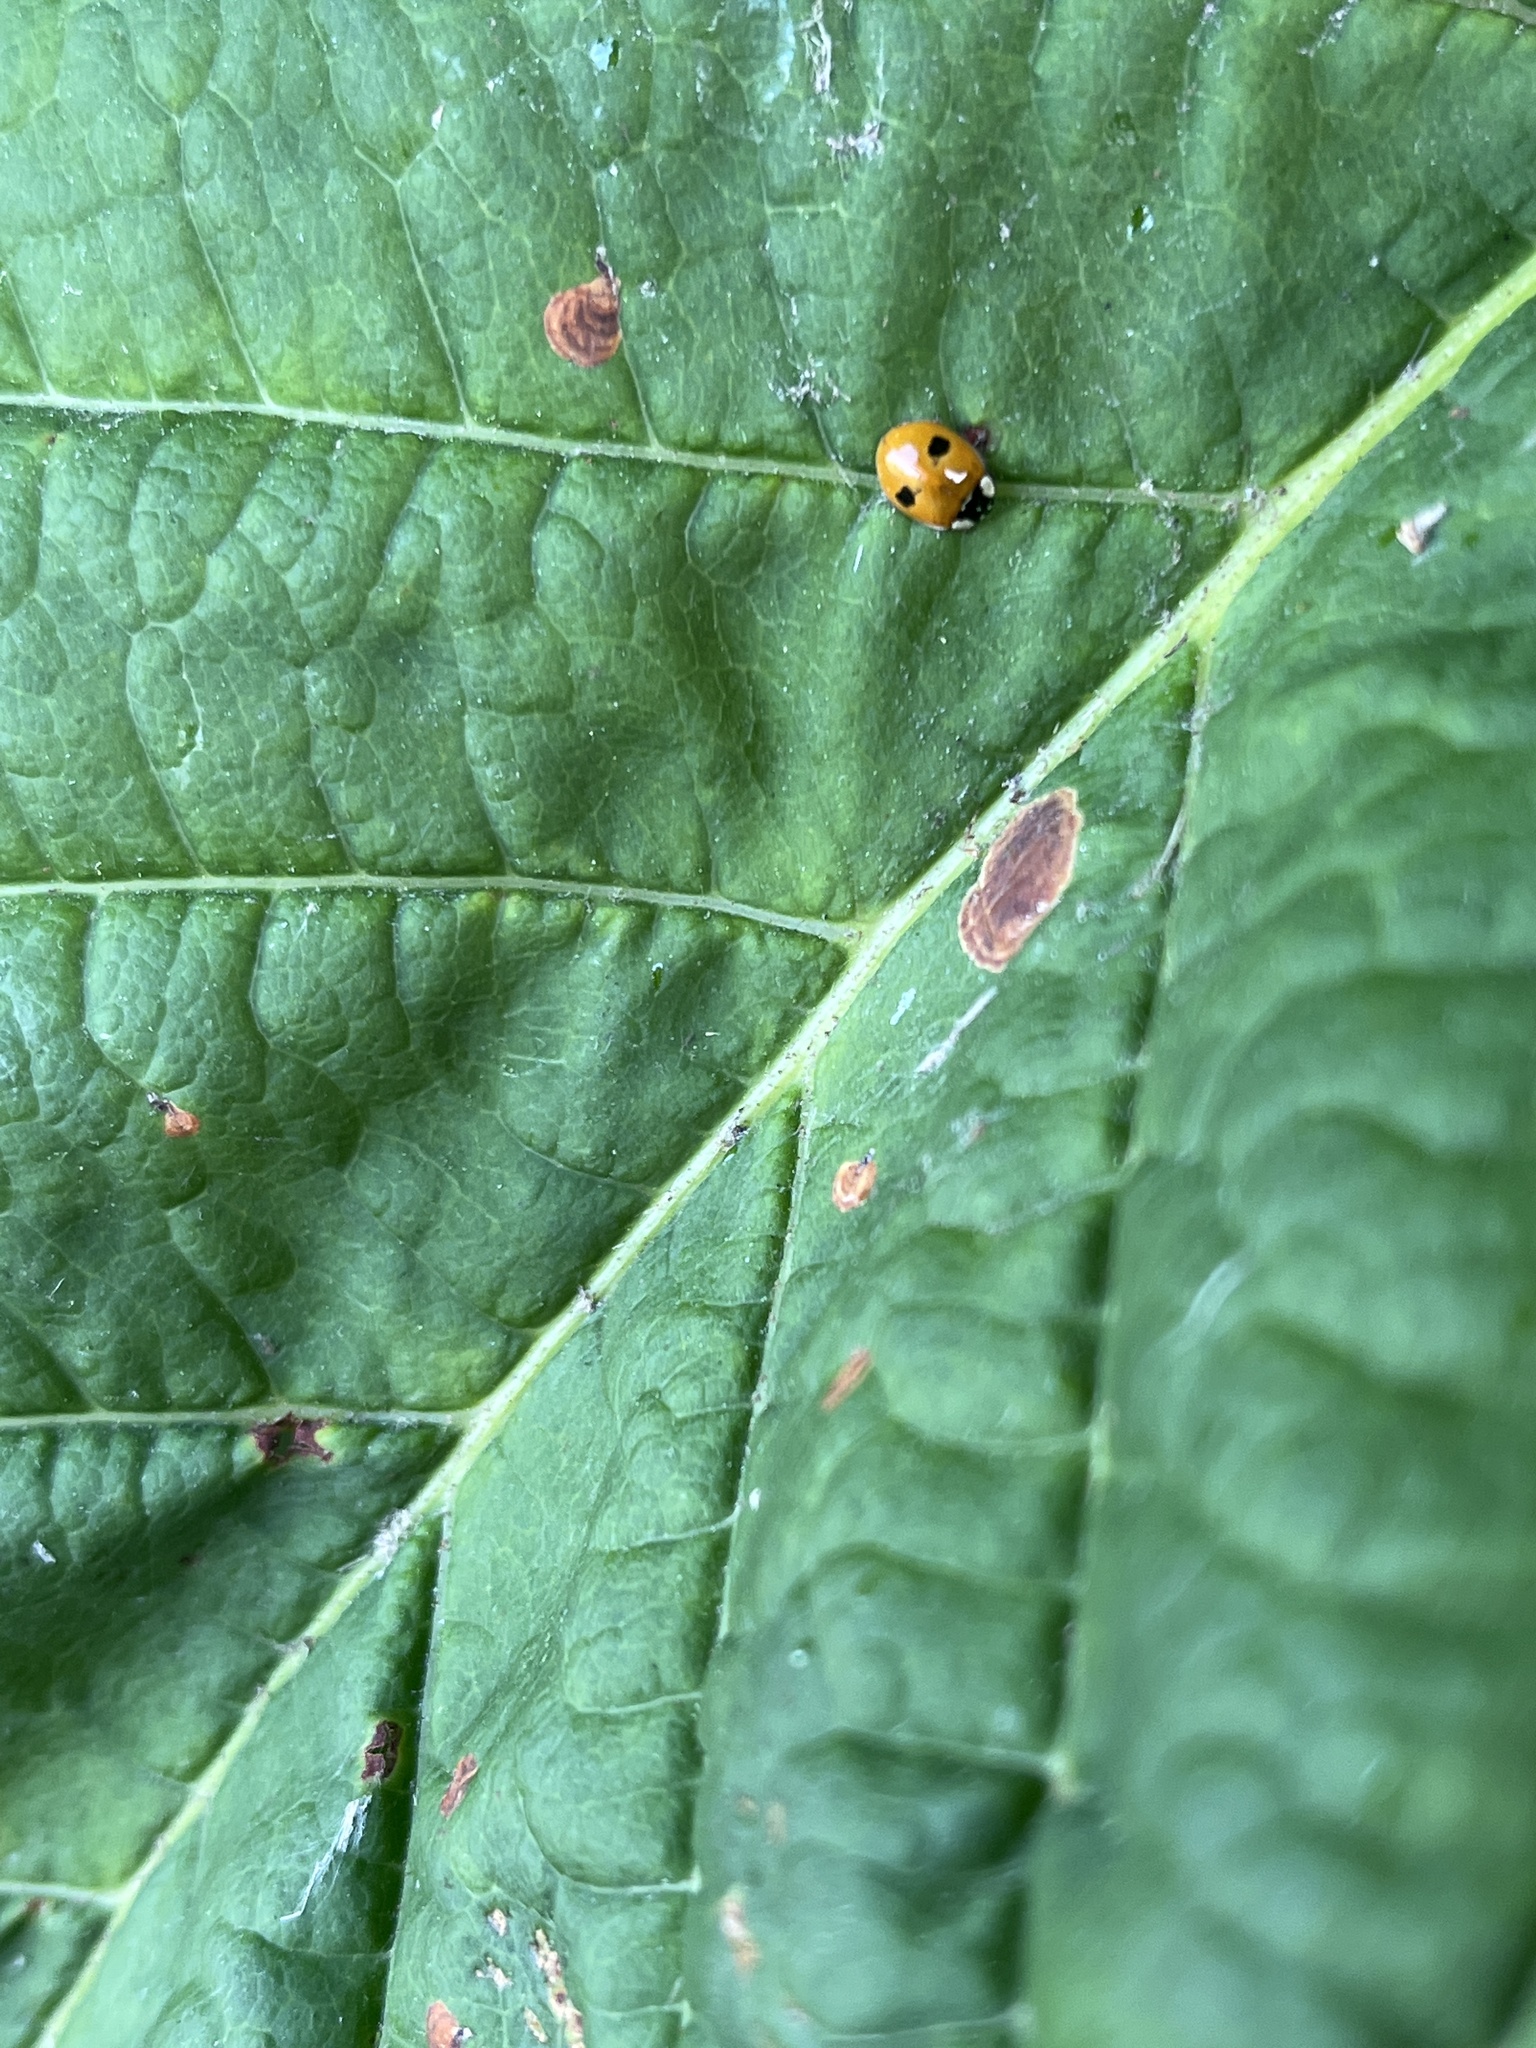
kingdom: Animalia
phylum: Arthropoda
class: Insecta
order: Coleoptera
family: Coccinellidae
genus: Adalia
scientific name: Adalia bipunctata
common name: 2-spot ladybird
